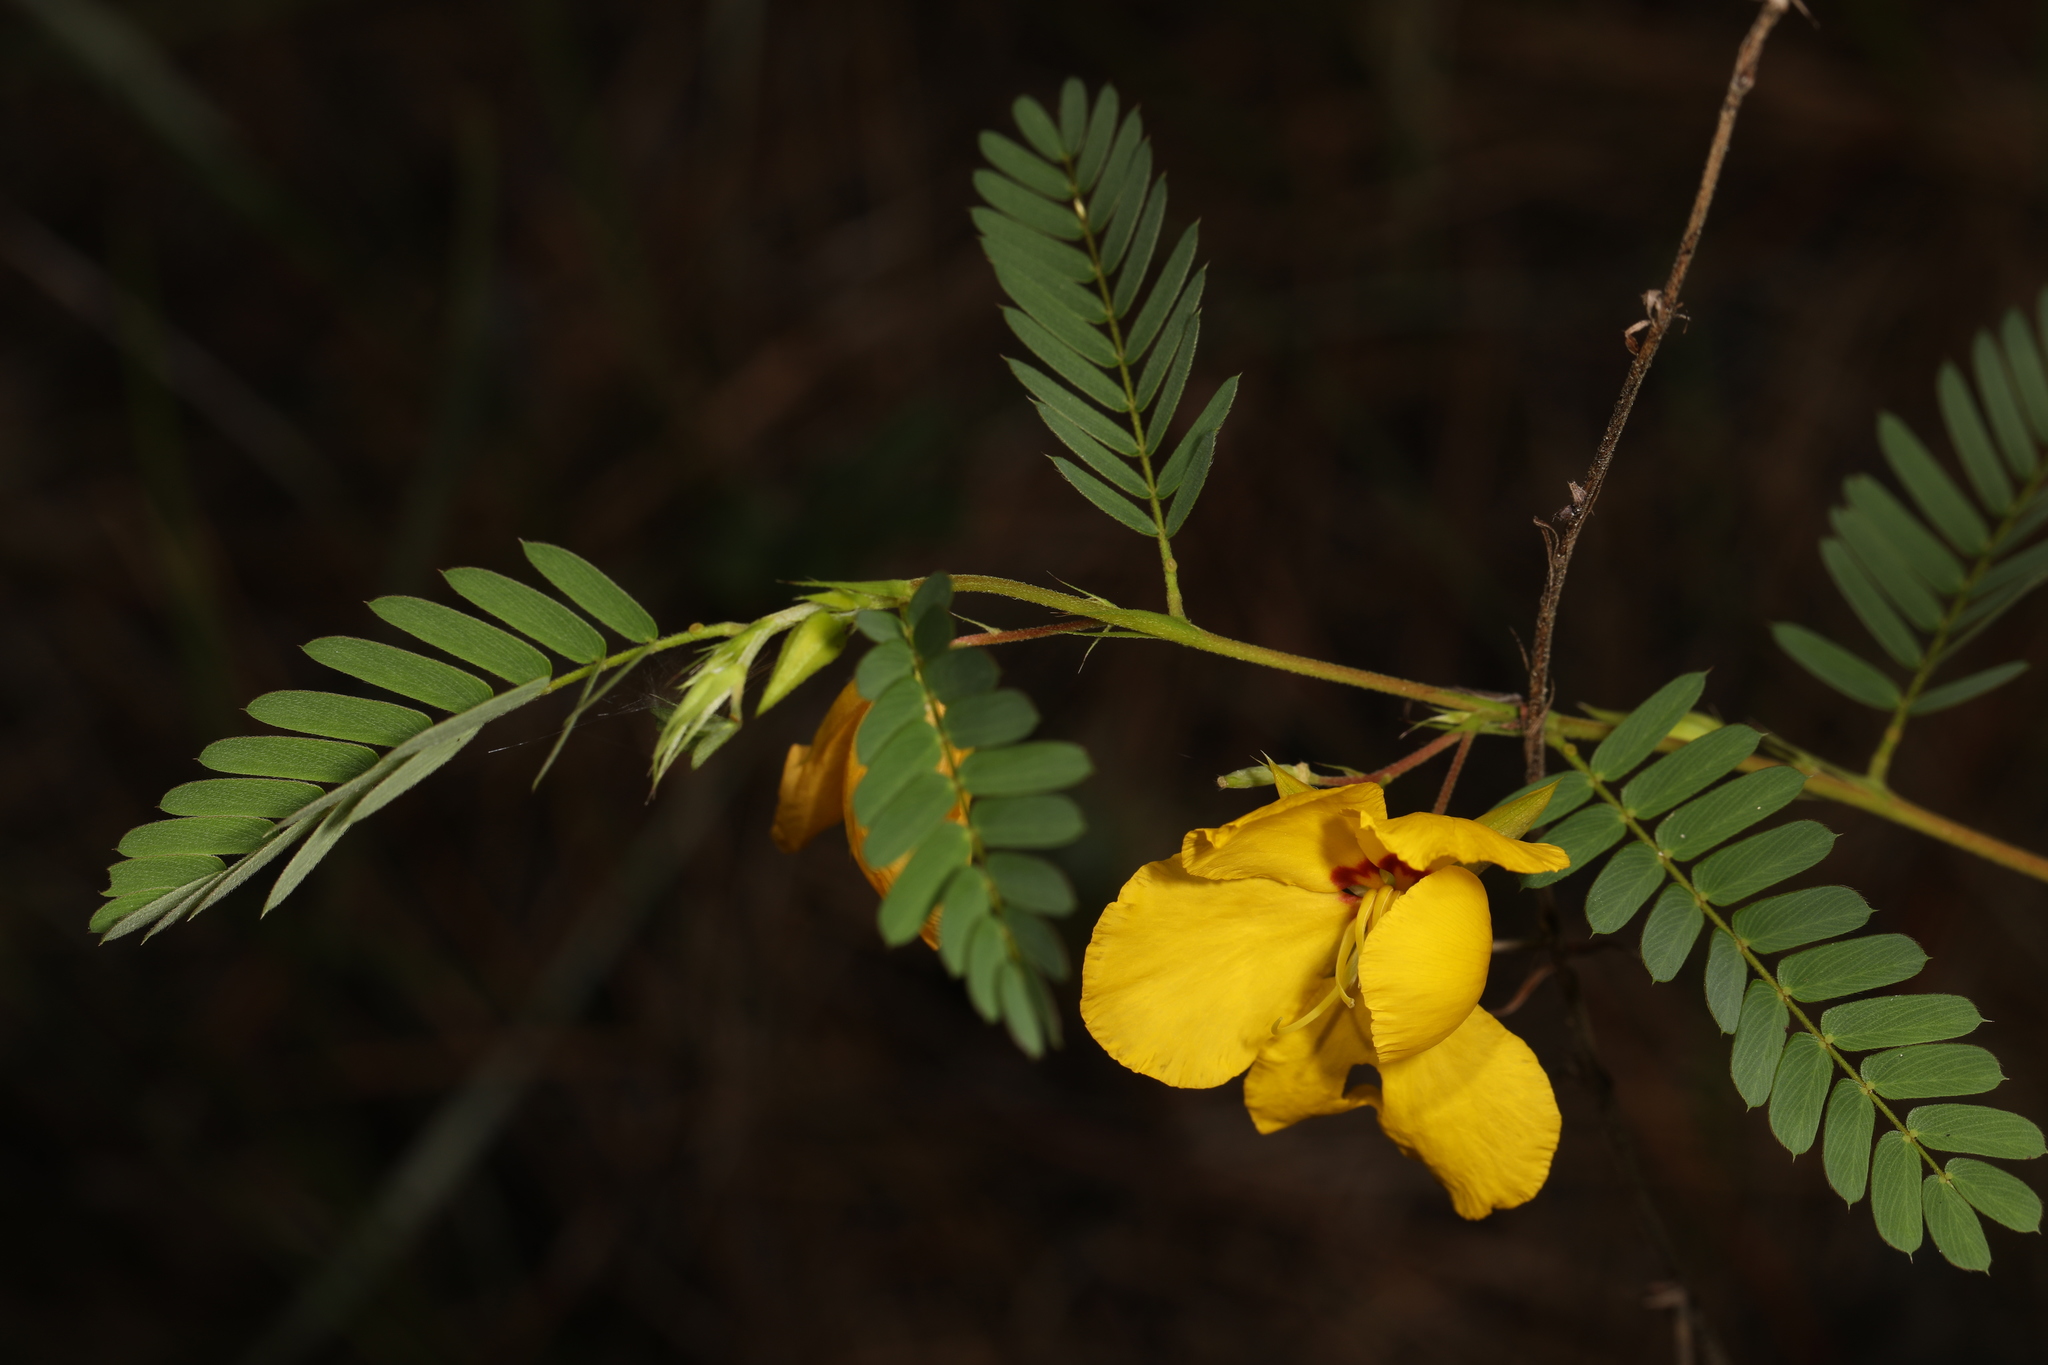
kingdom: Plantae
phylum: Tracheophyta
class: Magnoliopsida
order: Fabales
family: Fabaceae
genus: Chamaecrista
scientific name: Chamaecrista fasciculata
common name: Golden cassia
